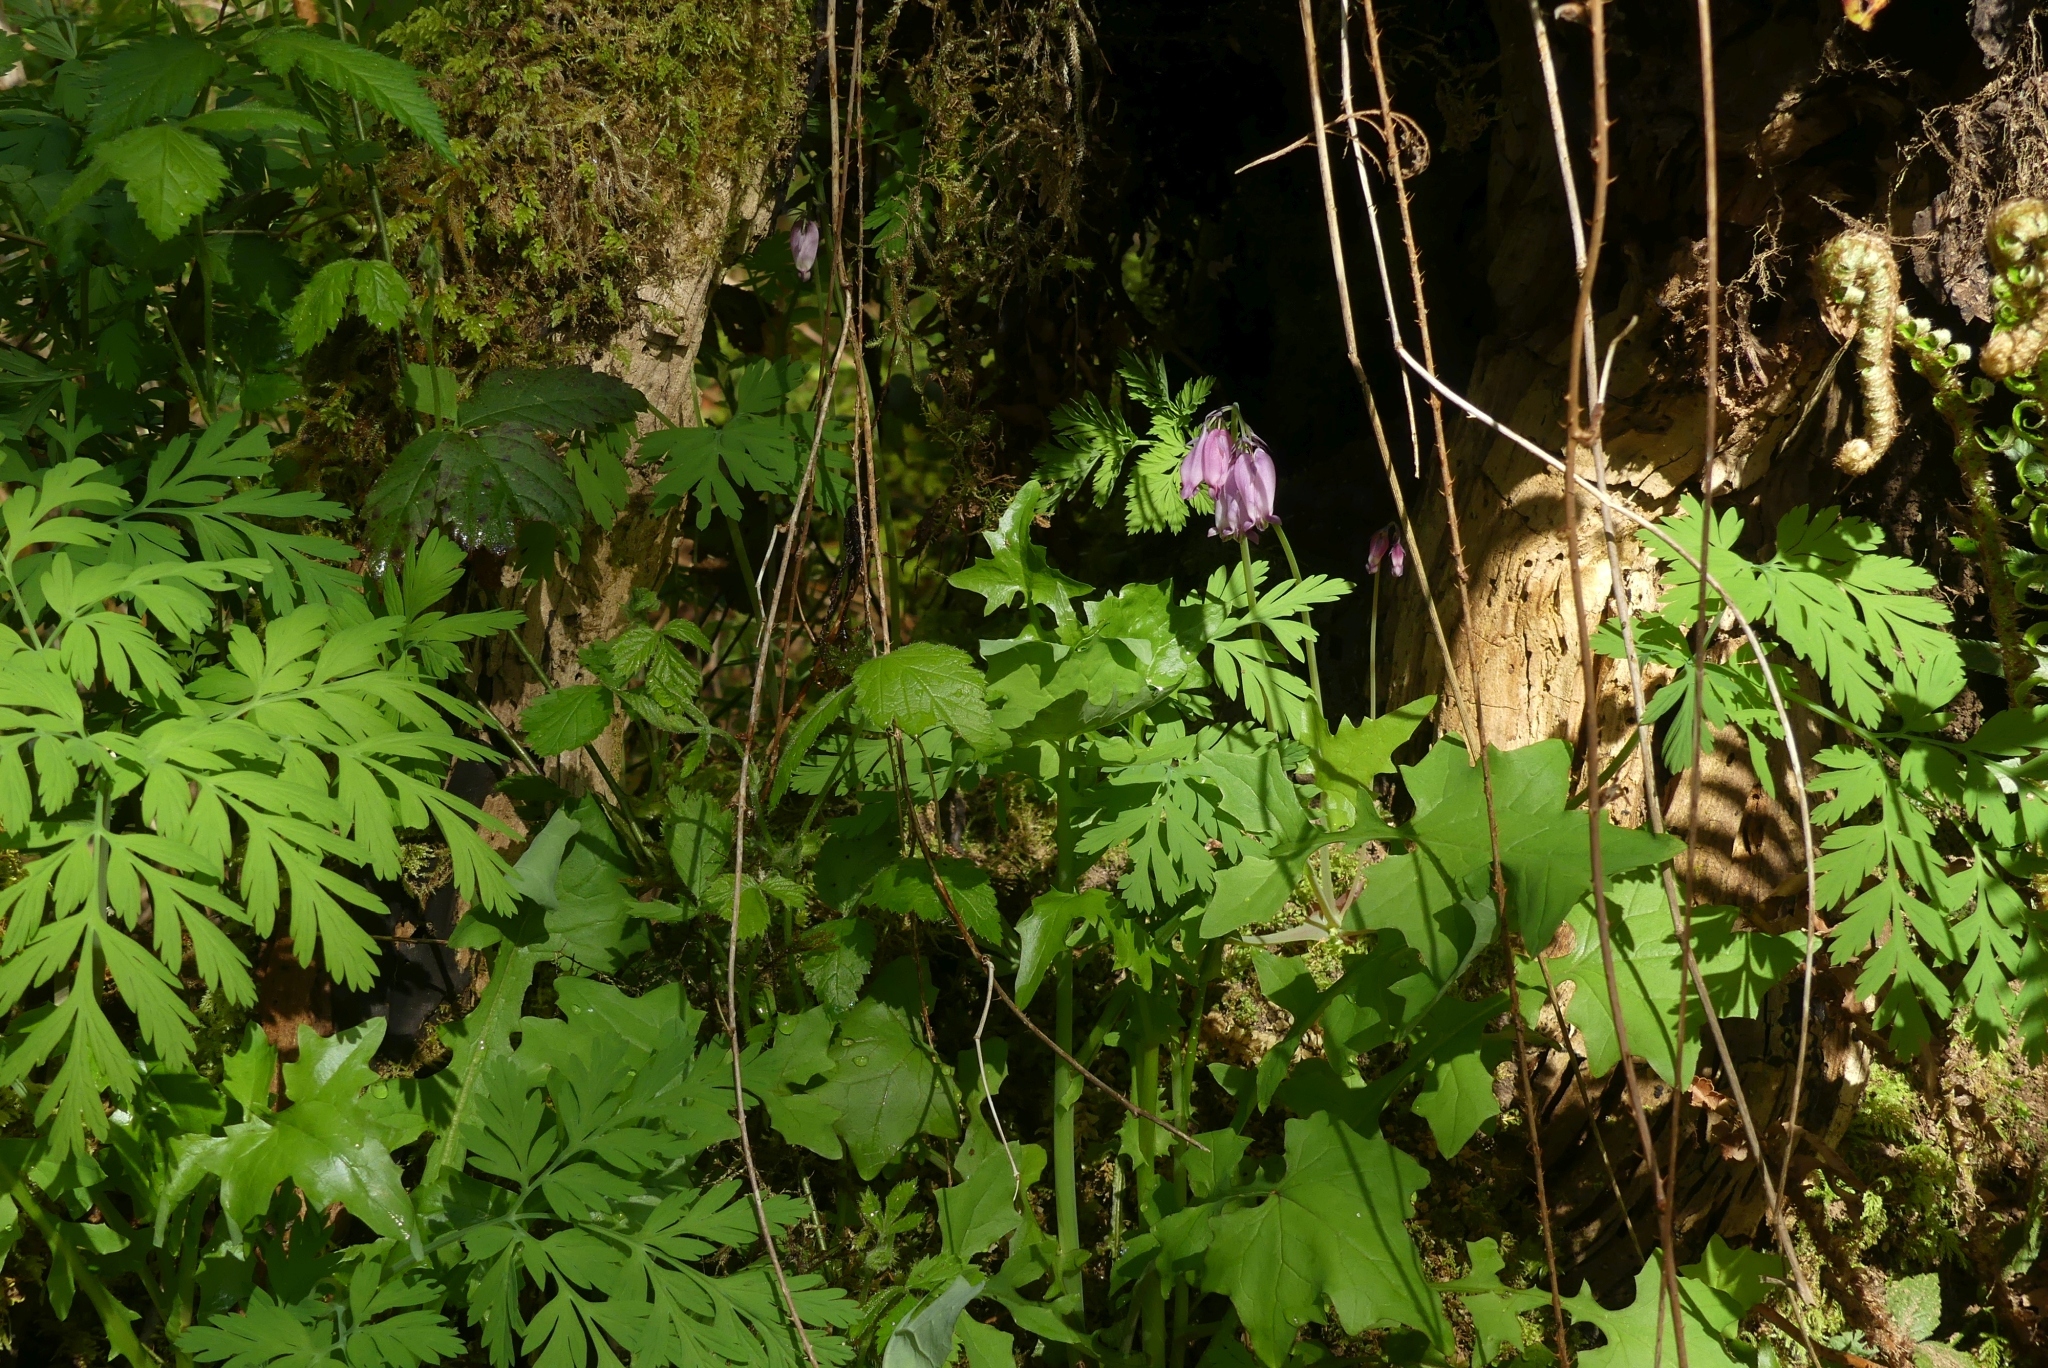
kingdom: Plantae
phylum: Tracheophyta
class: Magnoliopsida
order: Ranunculales
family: Papaveraceae
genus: Dicentra
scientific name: Dicentra formosa
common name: Bleeding-heart
